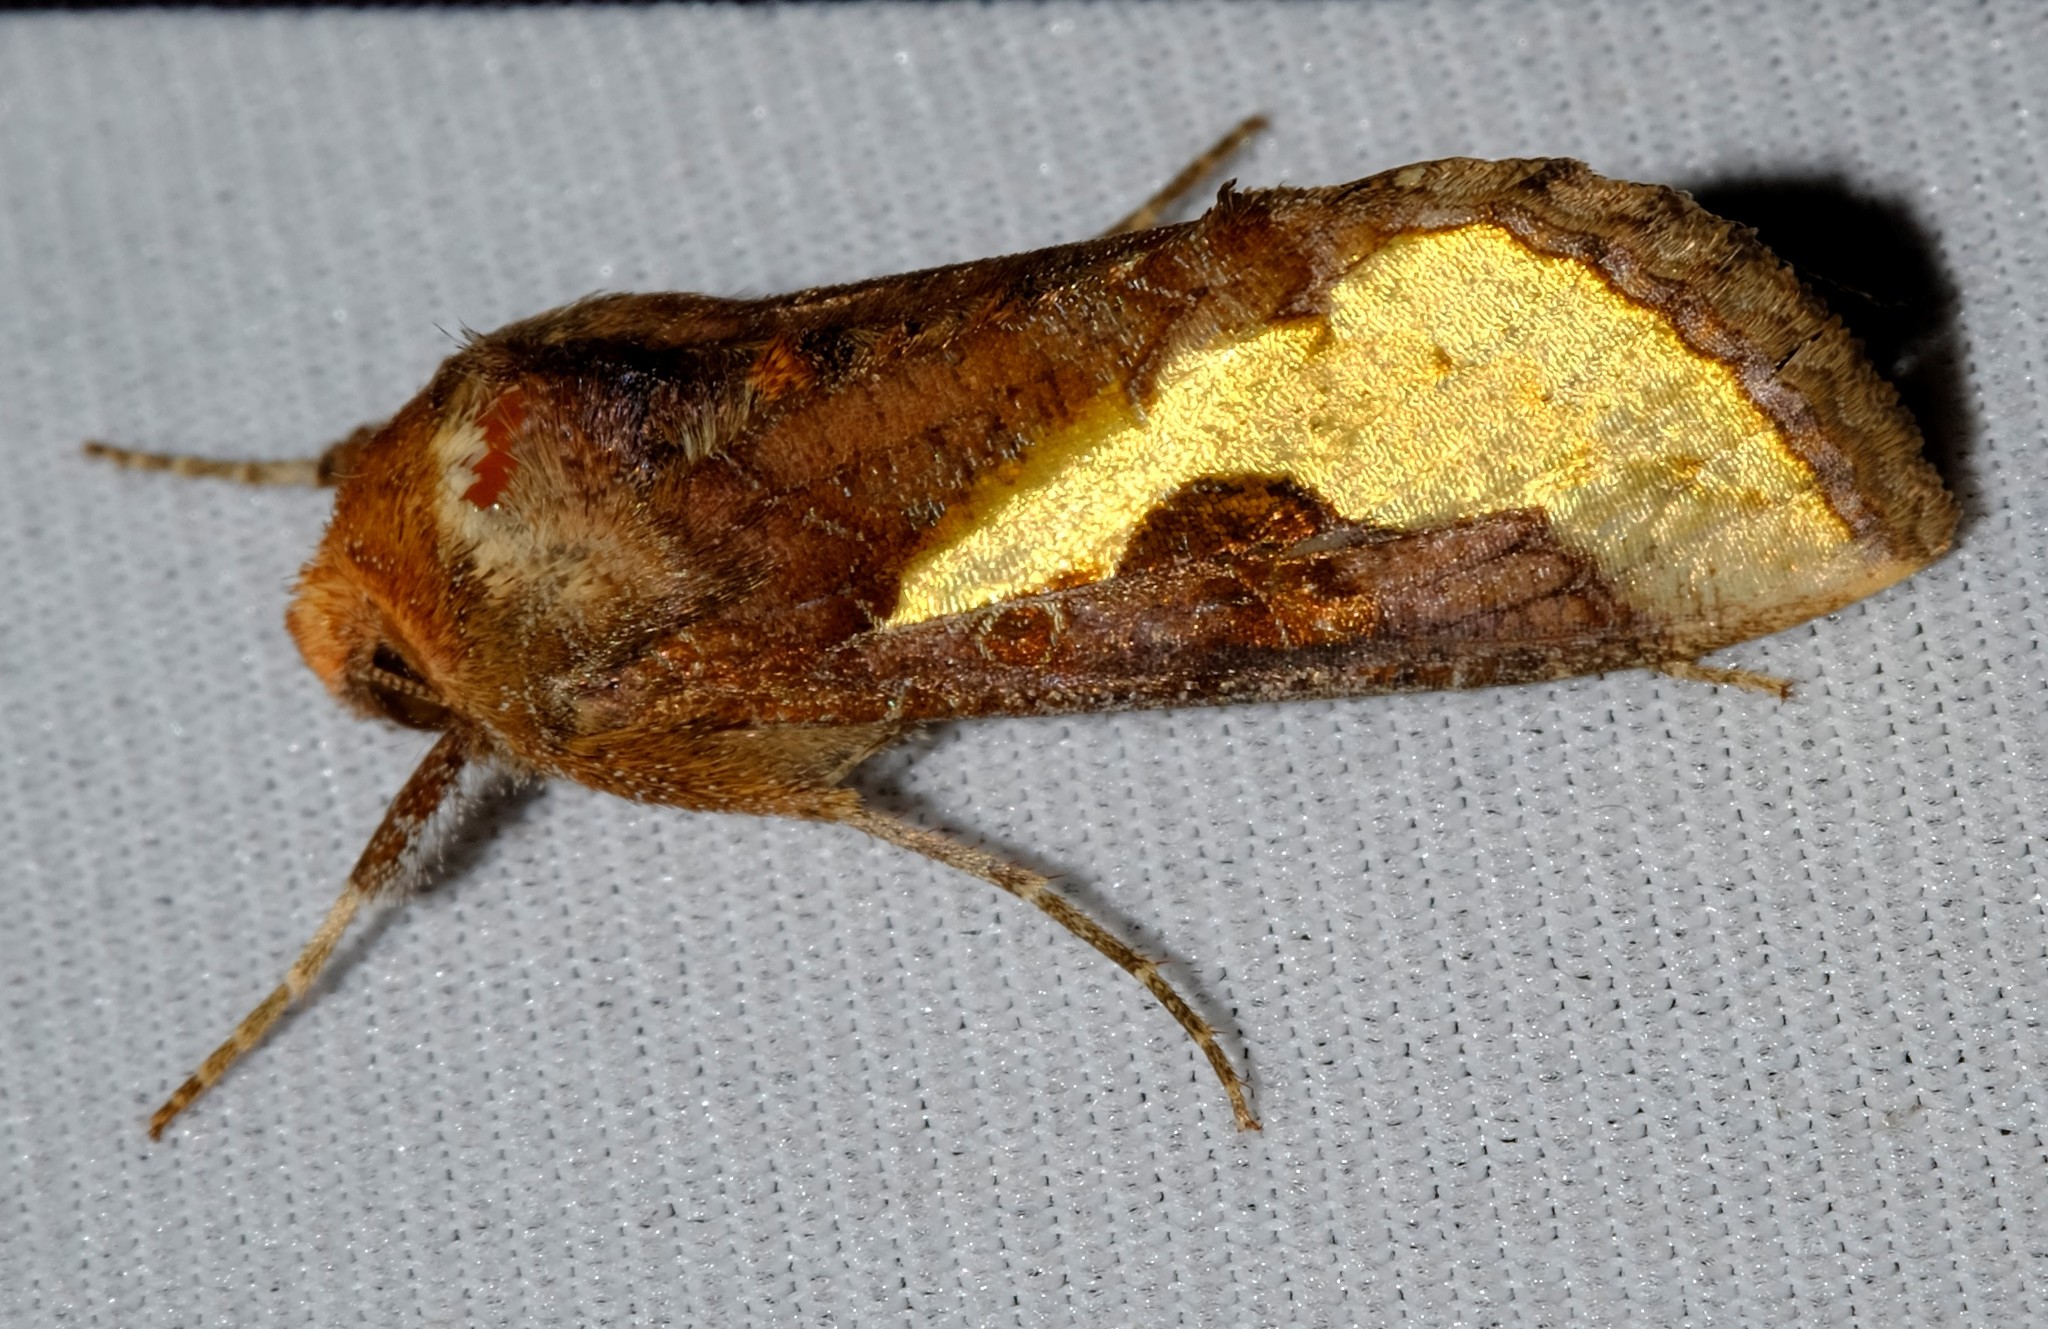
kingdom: Animalia
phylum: Arthropoda
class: Insecta
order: Lepidoptera
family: Noctuidae
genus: Thysanoplusia
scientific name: Thysanoplusia orichalcea
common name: Slender burnished brass, golden plusia
